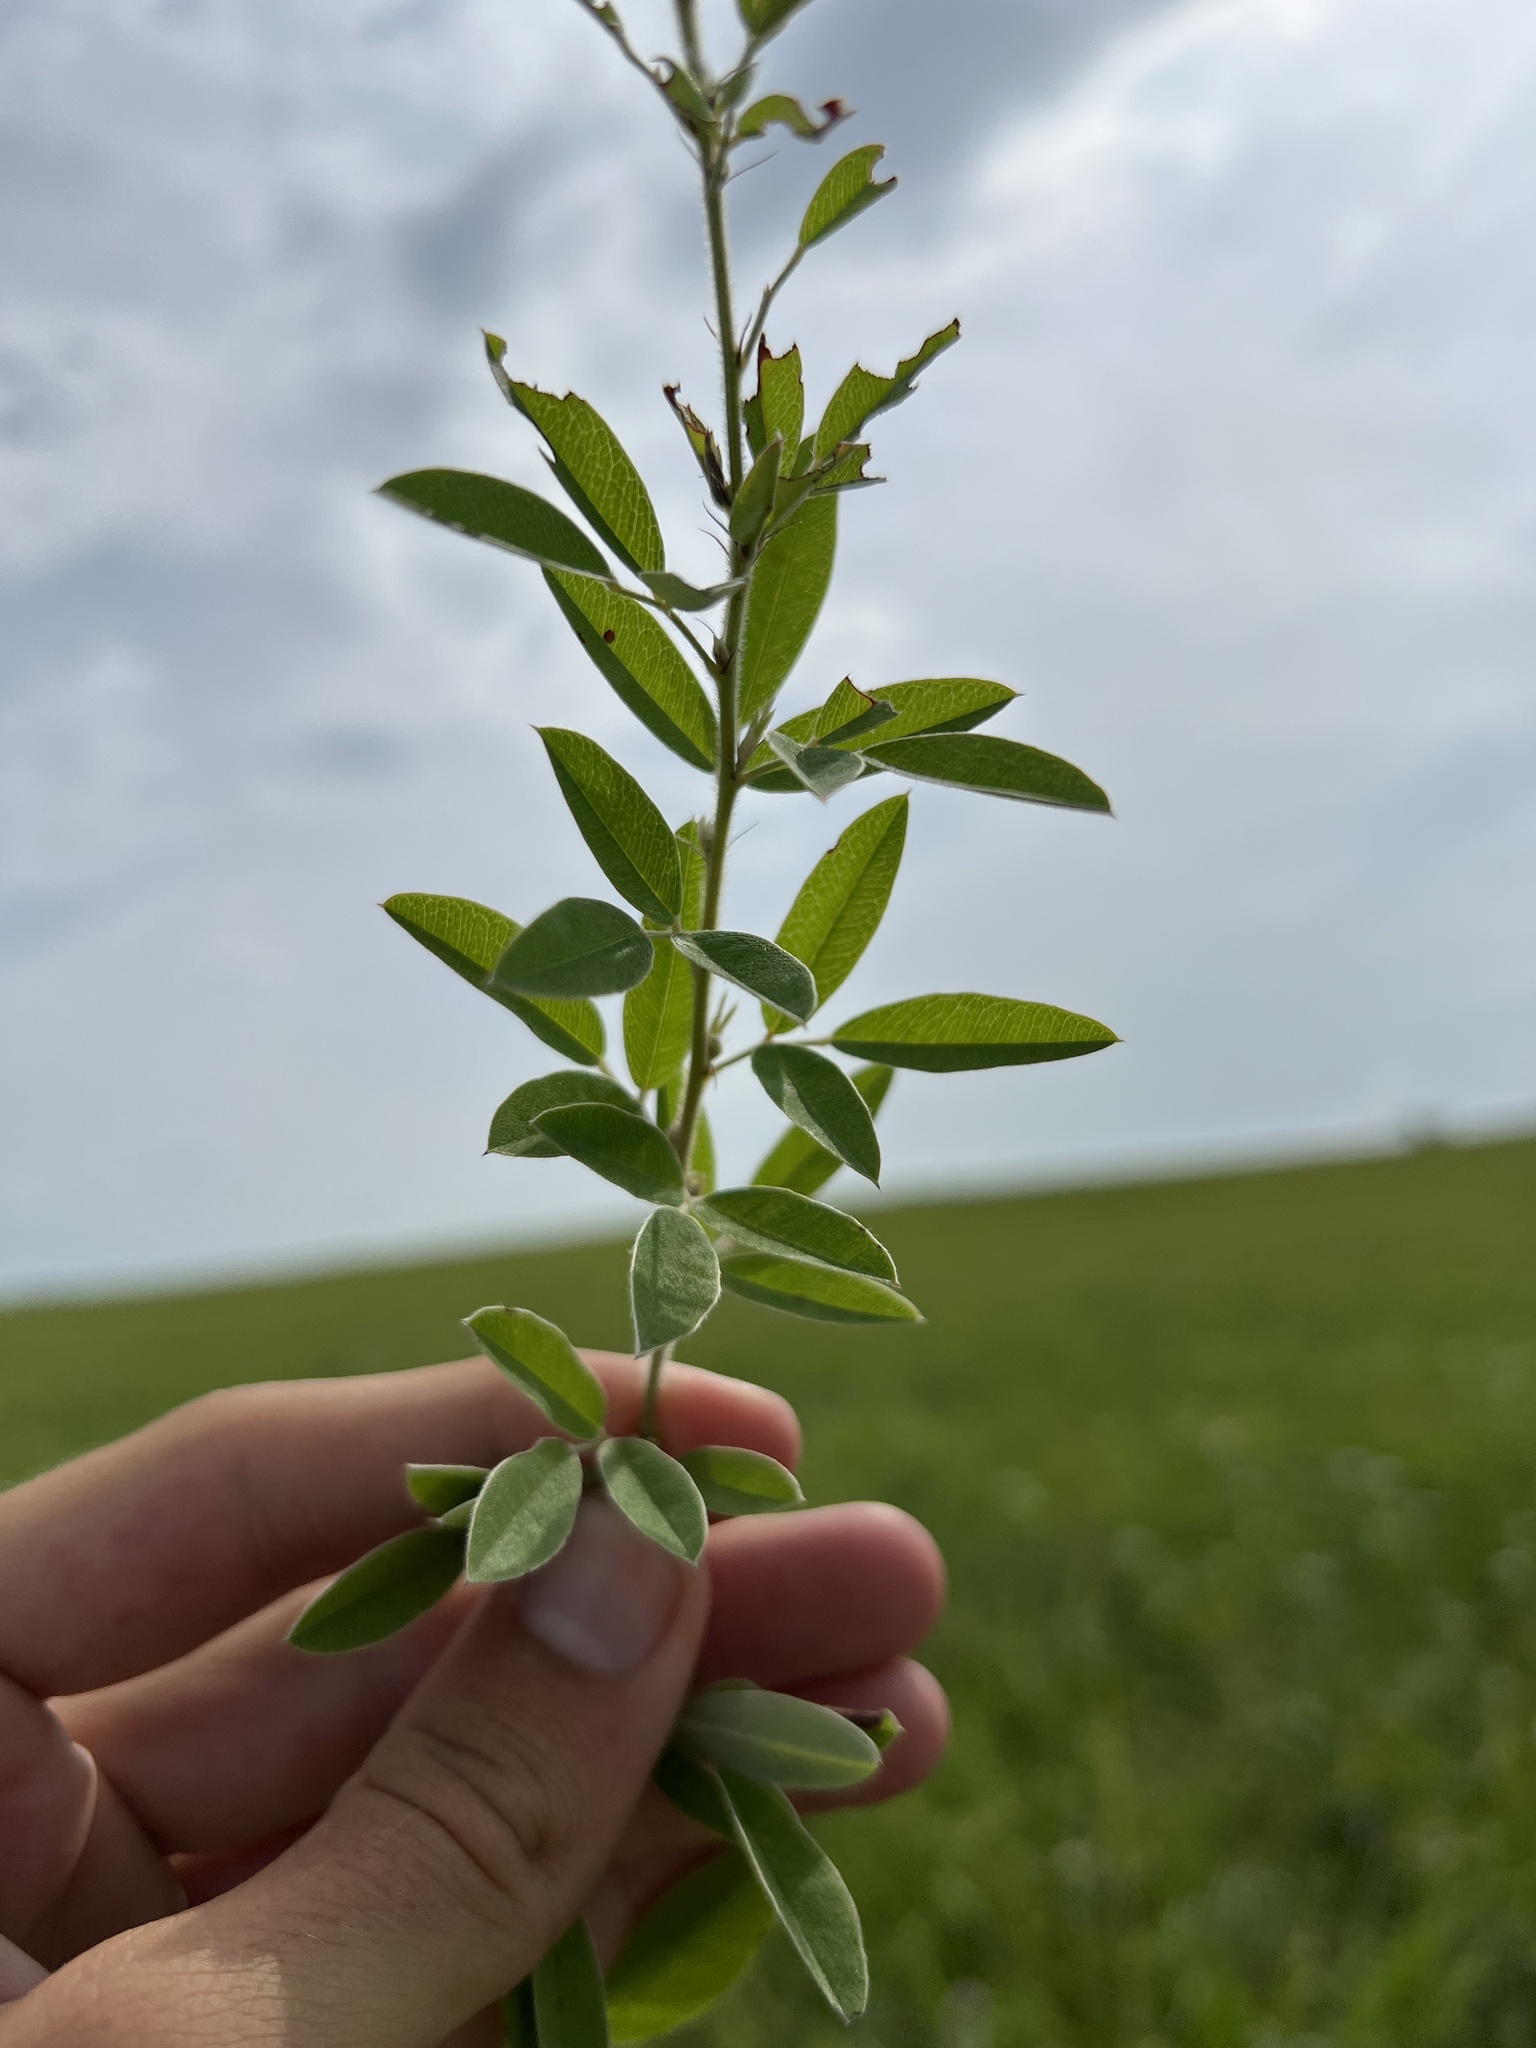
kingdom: Plantae
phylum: Tracheophyta
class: Magnoliopsida
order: Fabales
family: Fabaceae
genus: Lespedeza
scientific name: Lespedeza capitata
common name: Dusty clover
